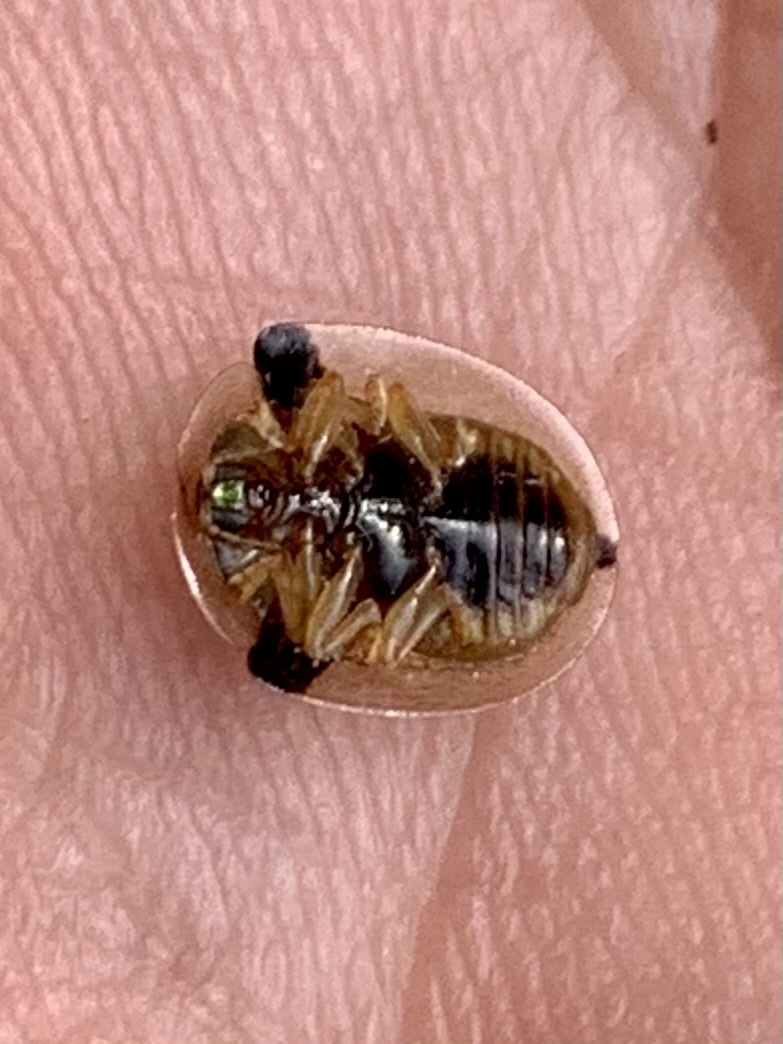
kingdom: Animalia
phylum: Arthropoda
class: Insecta
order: Coleoptera
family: Chrysomelidae
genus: Deloyala
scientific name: Deloyala guttata
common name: Mottled tortoise beetle
